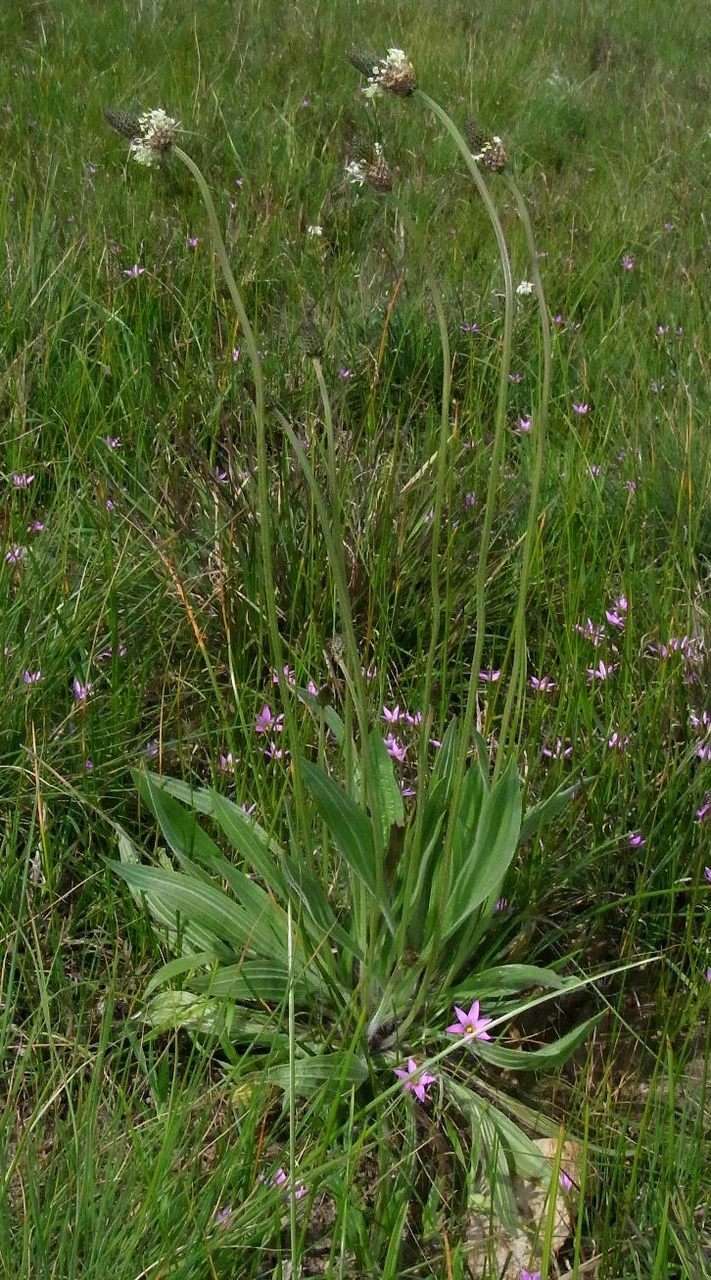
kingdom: Plantae
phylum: Tracheophyta
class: Magnoliopsida
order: Lamiales
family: Plantaginaceae
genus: Plantago
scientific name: Plantago lanceolata
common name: Ribwort plantain
